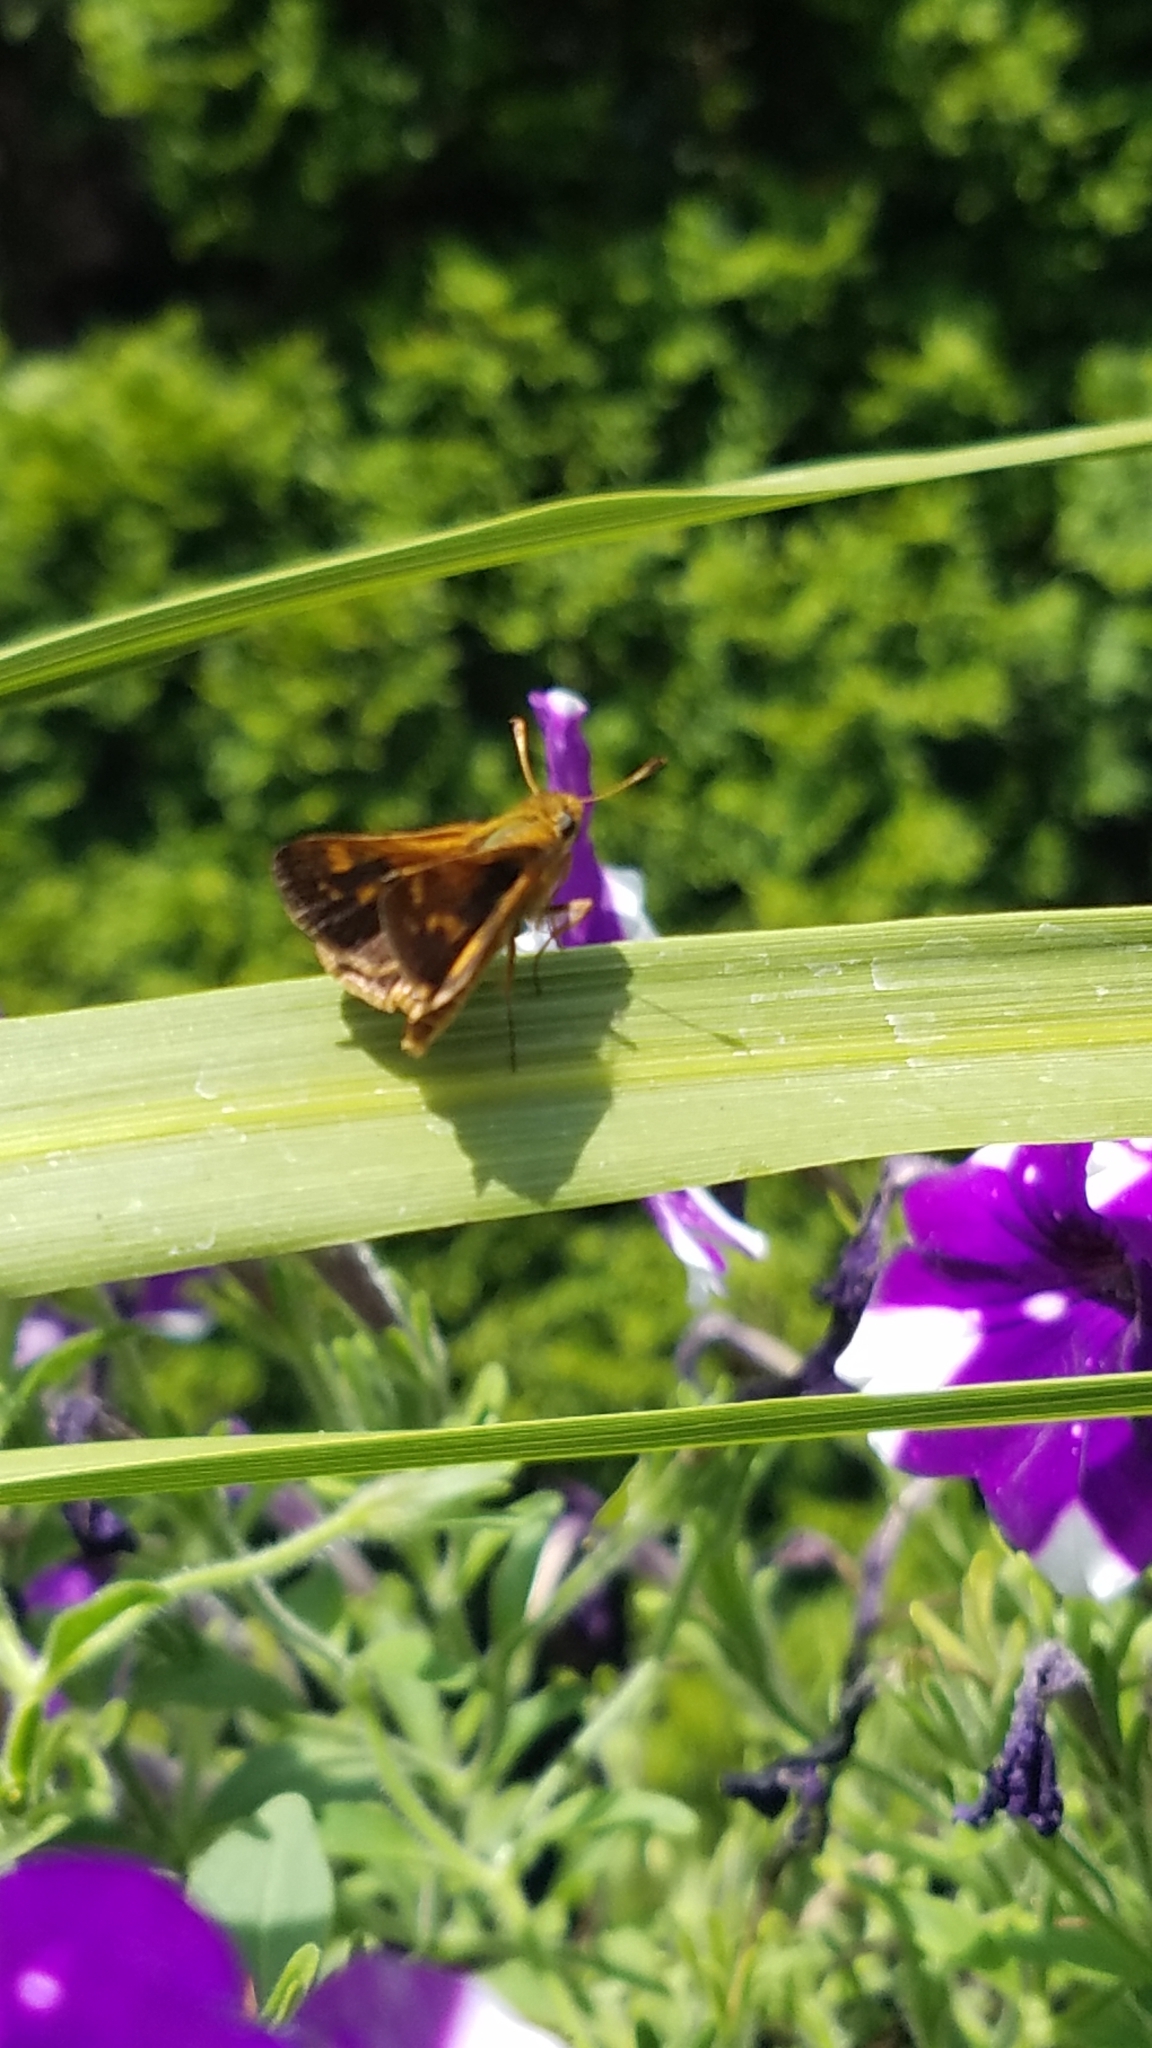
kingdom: Animalia
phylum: Arthropoda
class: Insecta
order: Lepidoptera
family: Hesperiidae
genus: Polites
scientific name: Polites coras
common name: Peck's skipper
